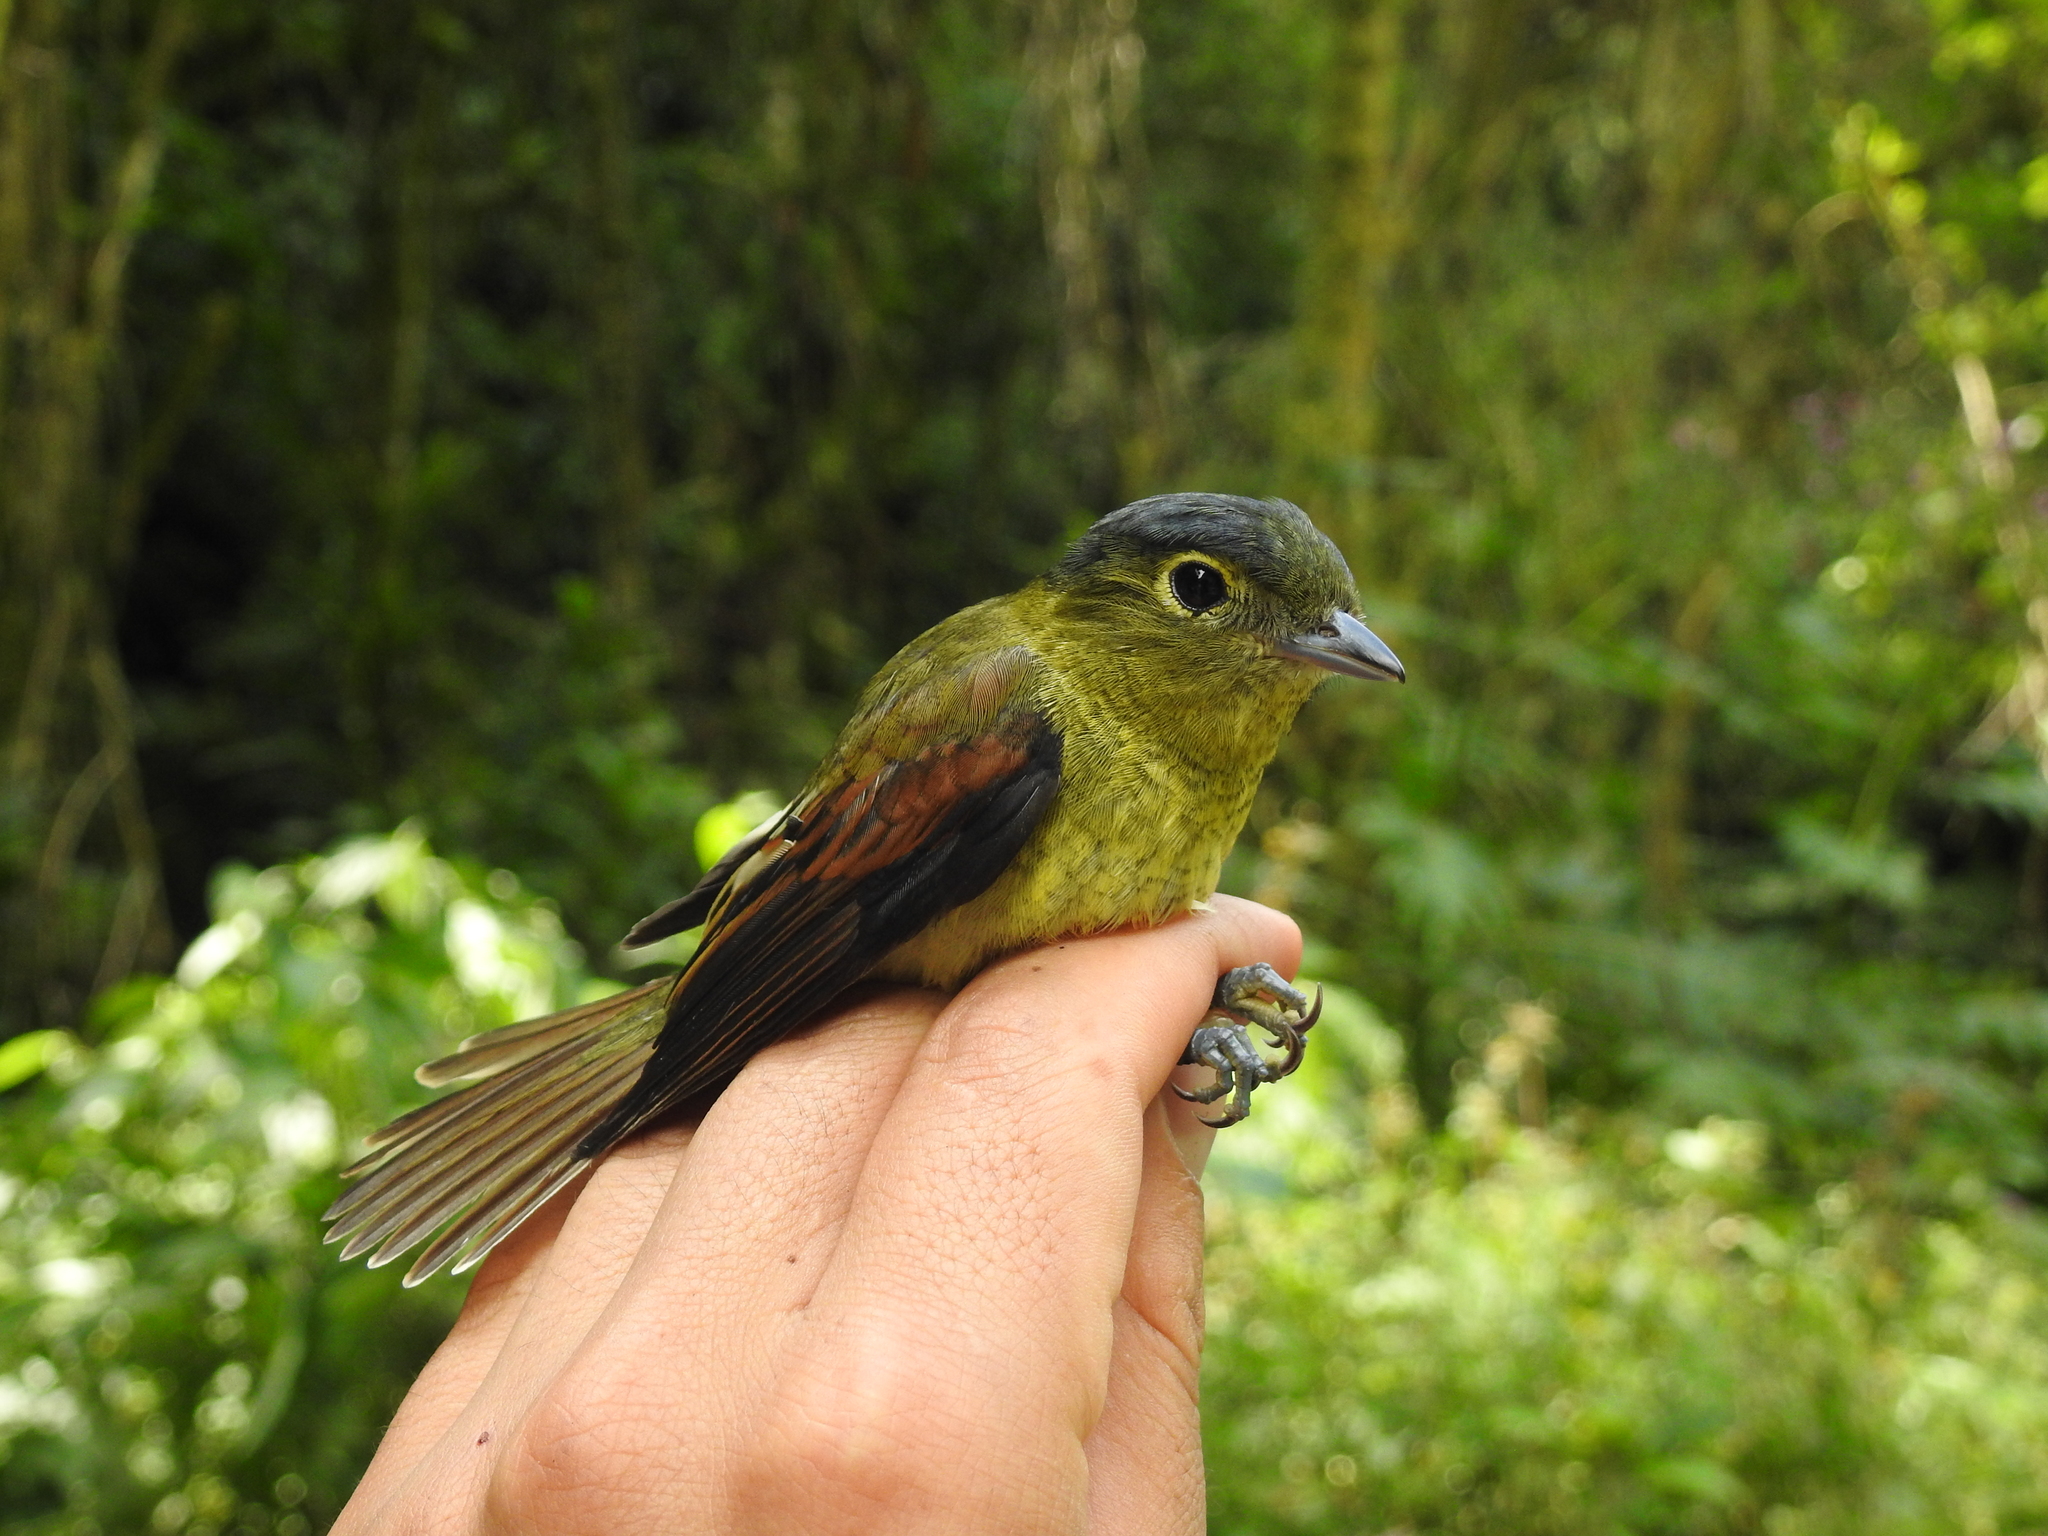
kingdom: Animalia
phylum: Chordata
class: Aves
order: Passeriformes
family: Cotingidae
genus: Pachyramphus
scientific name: Pachyramphus versicolor
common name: Barred becard
